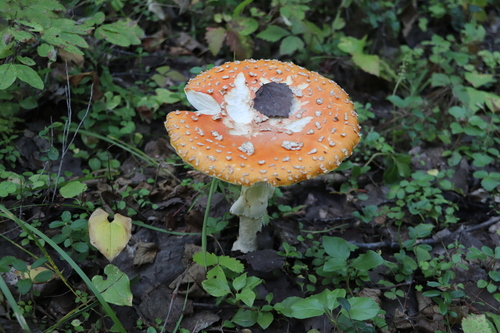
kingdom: Fungi
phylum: Basidiomycota
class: Agaricomycetes
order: Agaricales
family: Amanitaceae
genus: Amanita
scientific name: Amanita muscaria
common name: Fly agaric
